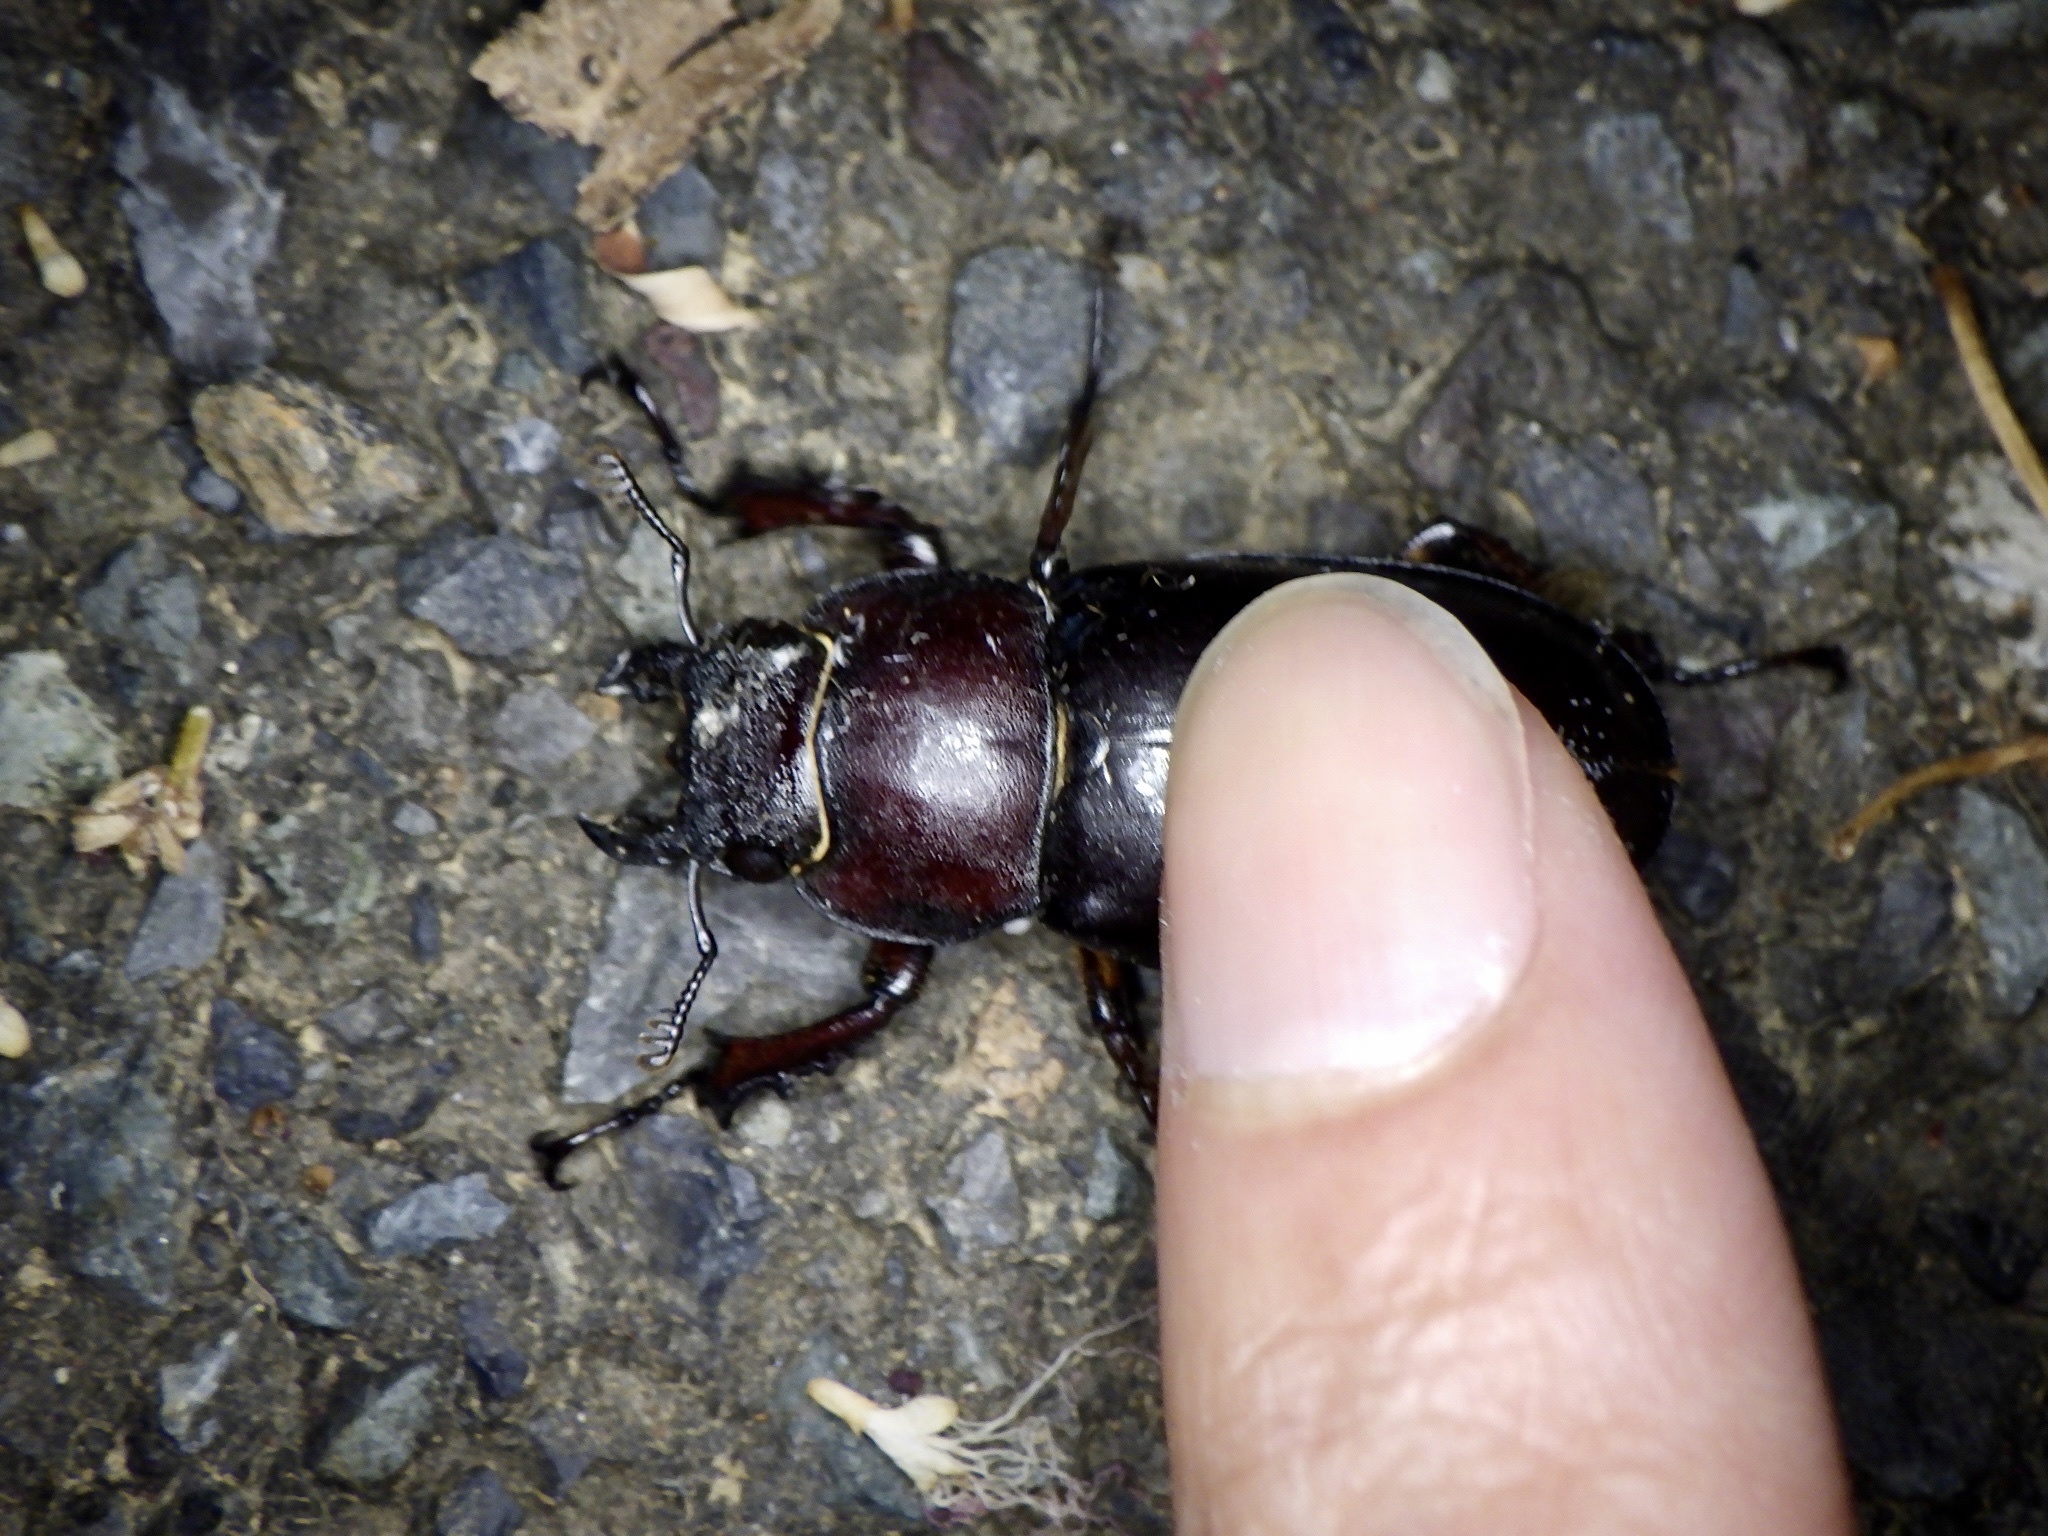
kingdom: Animalia
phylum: Arthropoda
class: Insecta
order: Coleoptera
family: Lucanidae
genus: Lucanus
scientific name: Lucanus maculifemoratus
